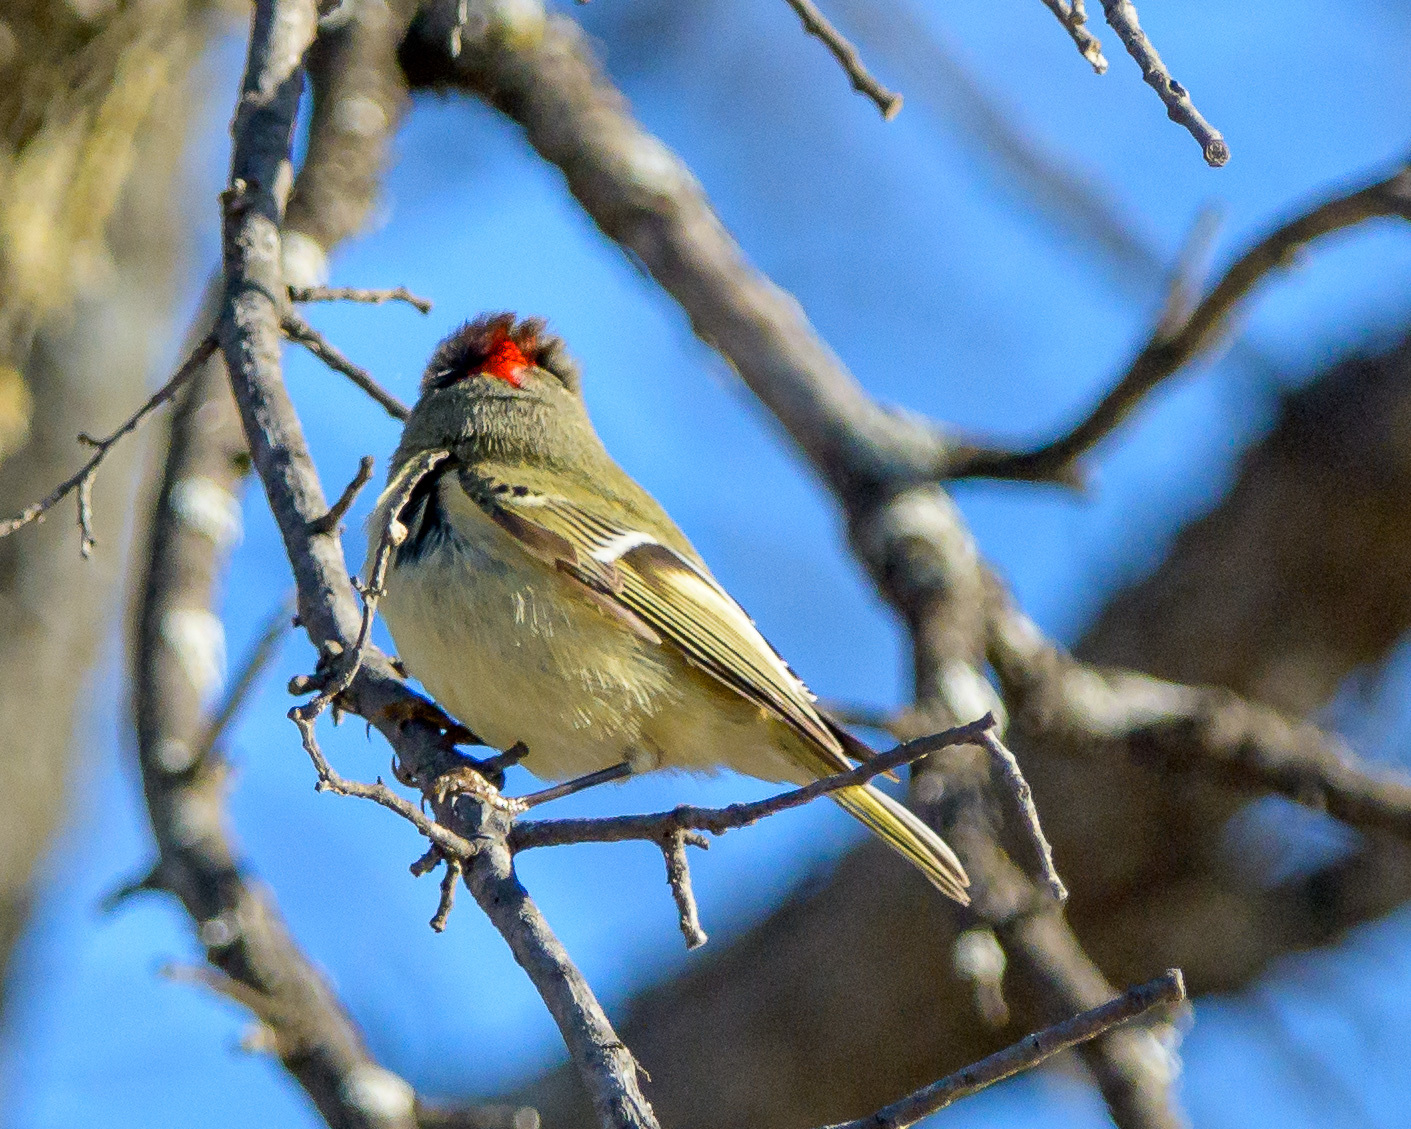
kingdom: Animalia
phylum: Chordata
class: Aves
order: Passeriformes
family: Regulidae
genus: Regulus
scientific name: Regulus calendula
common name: Ruby-crowned kinglet
